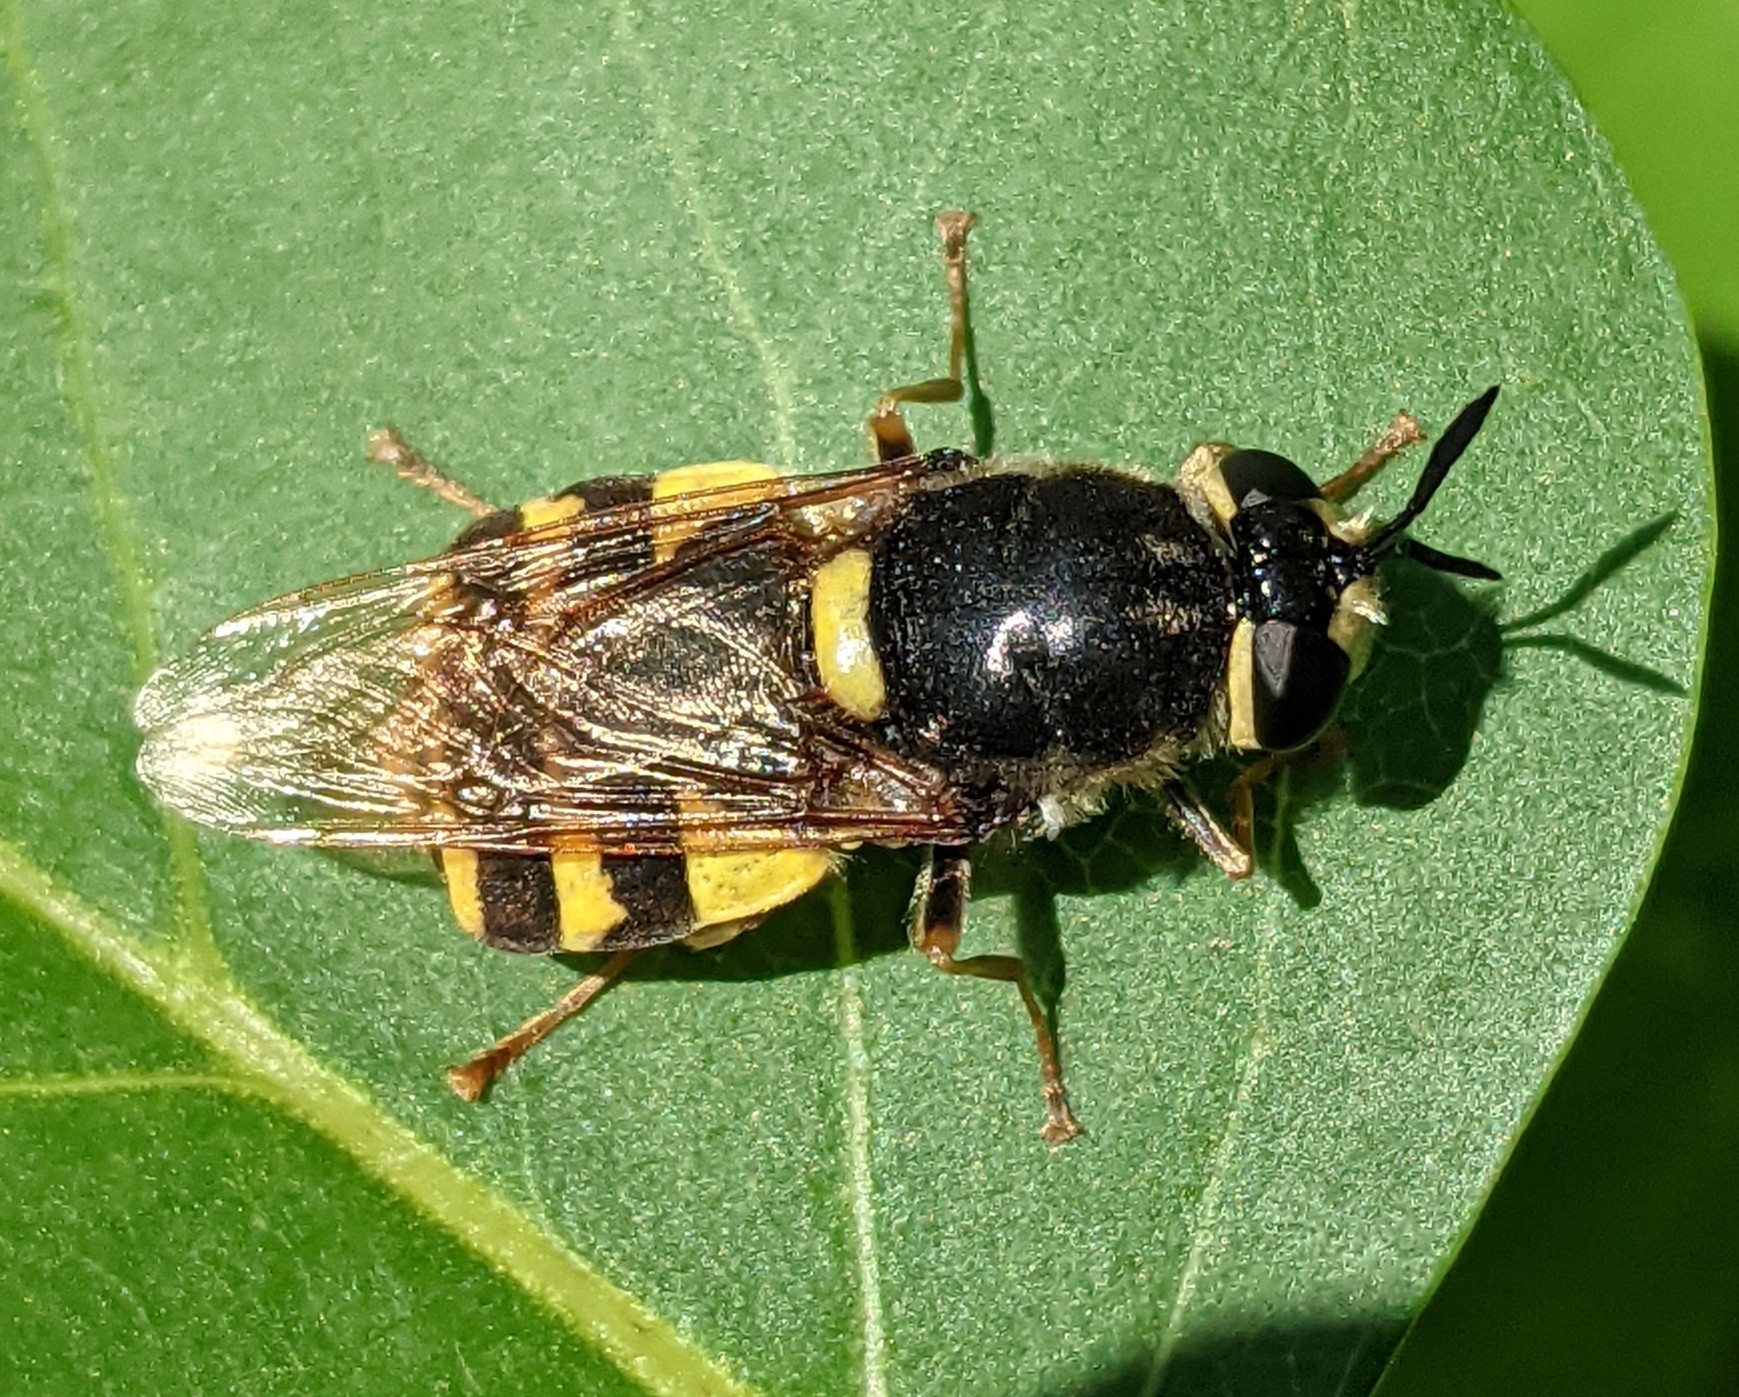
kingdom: Animalia
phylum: Arthropoda
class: Insecta
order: Diptera
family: Stratiomyidae
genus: Stratiomys
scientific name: Stratiomys potamida
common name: Banded general
